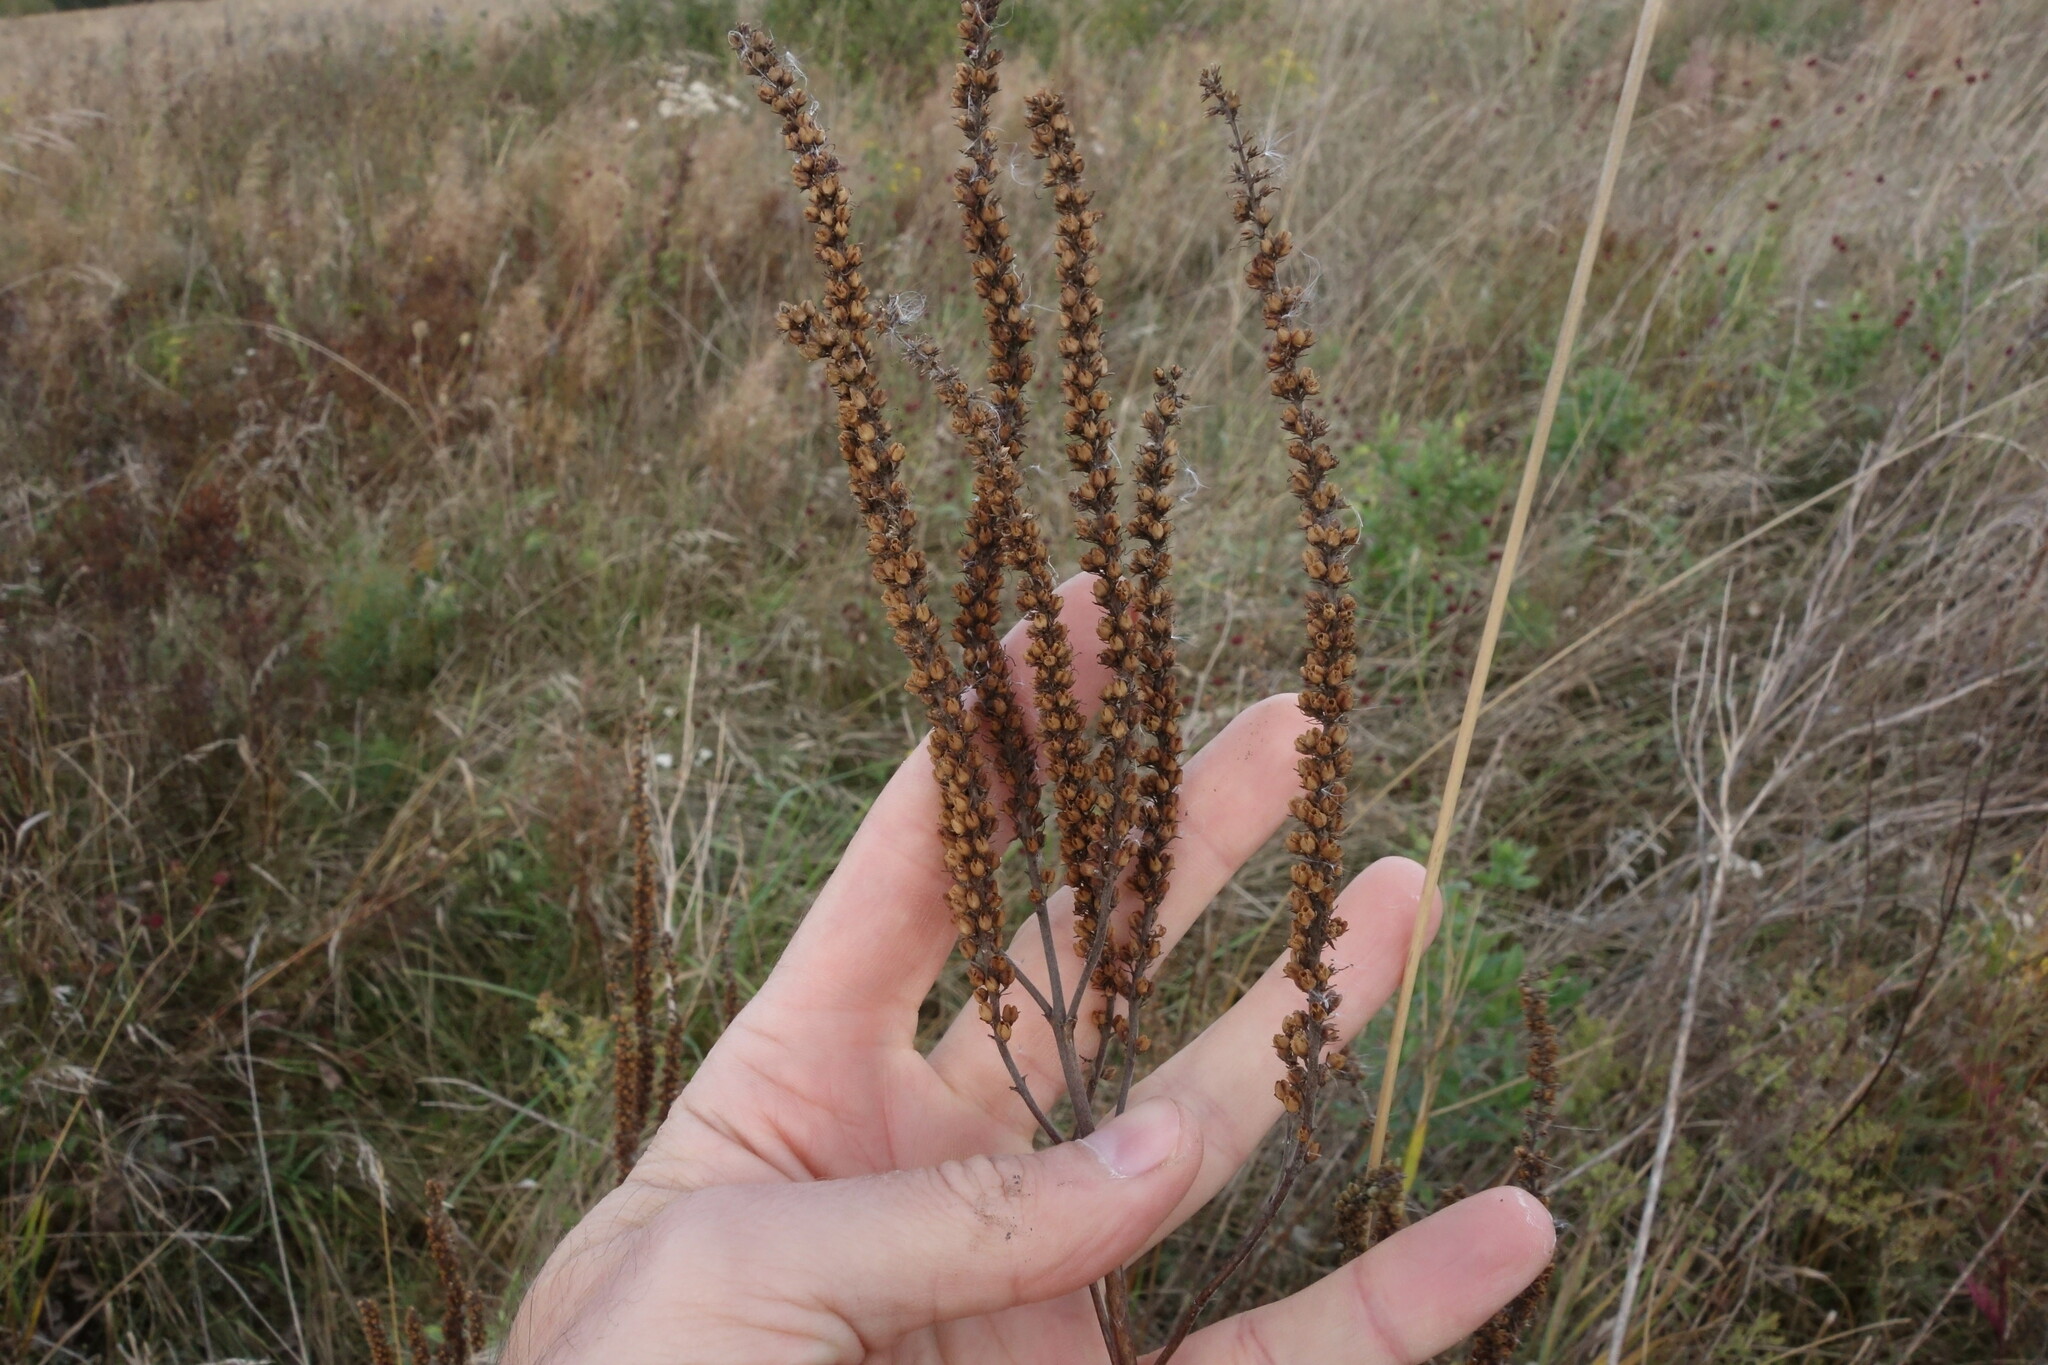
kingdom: Plantae
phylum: Tracheophyta
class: Magnoliopsida
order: Lamiales
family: Plantaginaceae
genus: Veronica
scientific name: Veronica longifolia
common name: Garden speedwell
